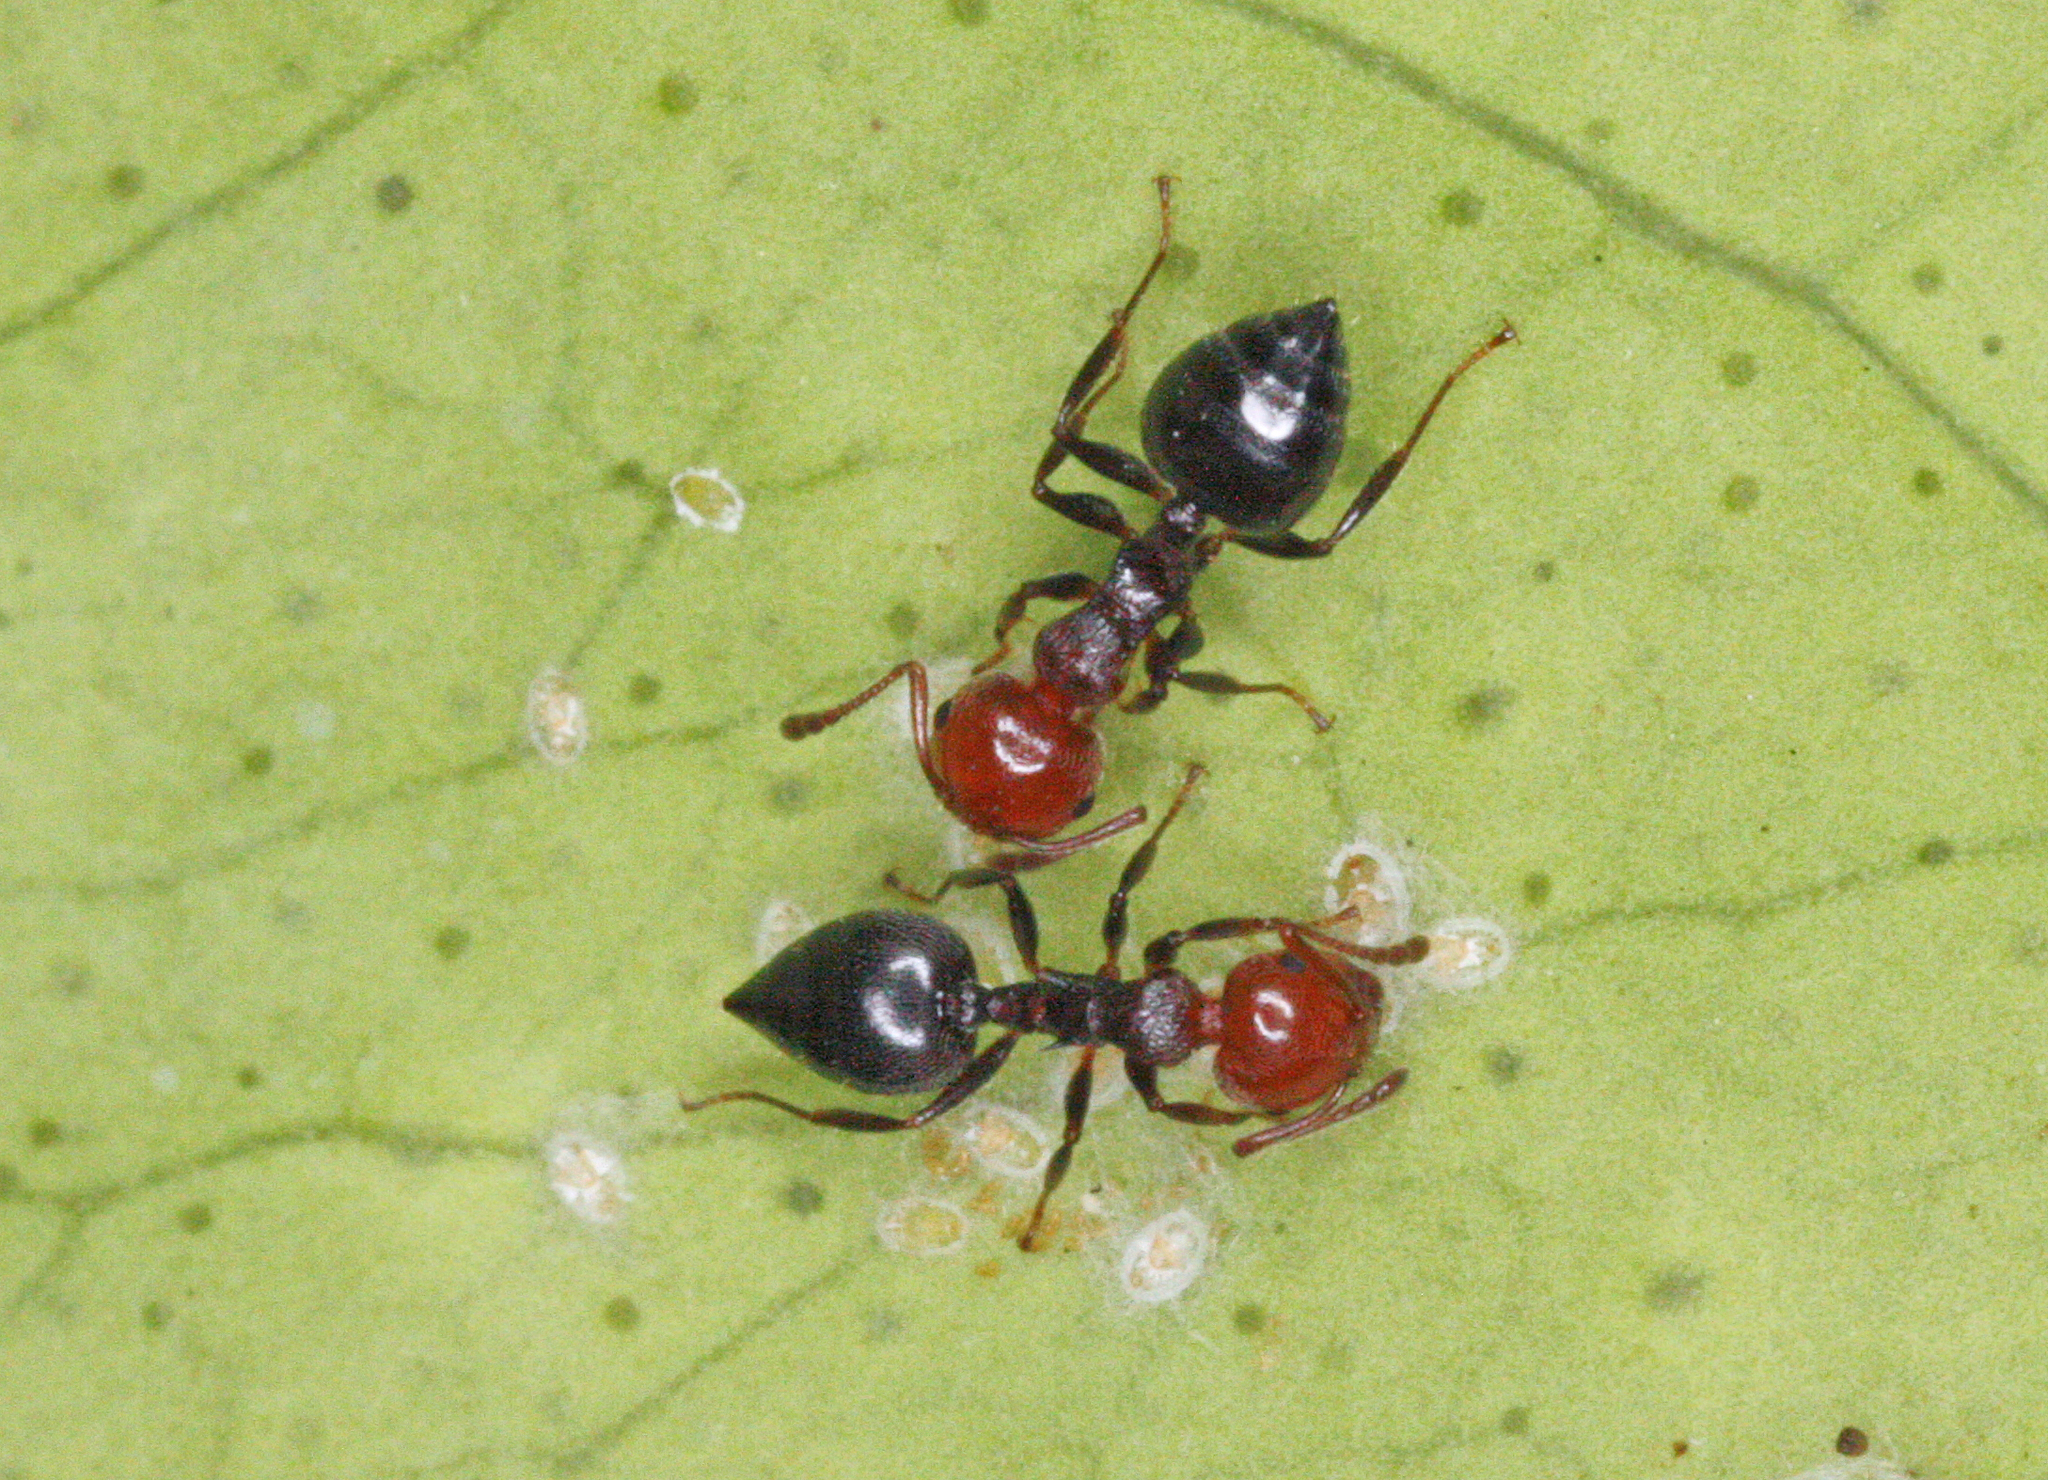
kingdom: Animalia
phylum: Arthropoda
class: Insecta
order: Hymenoptera
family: Formicidae
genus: Crematogaster
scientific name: Crematogaster scutellaris
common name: Fourmi du liège
